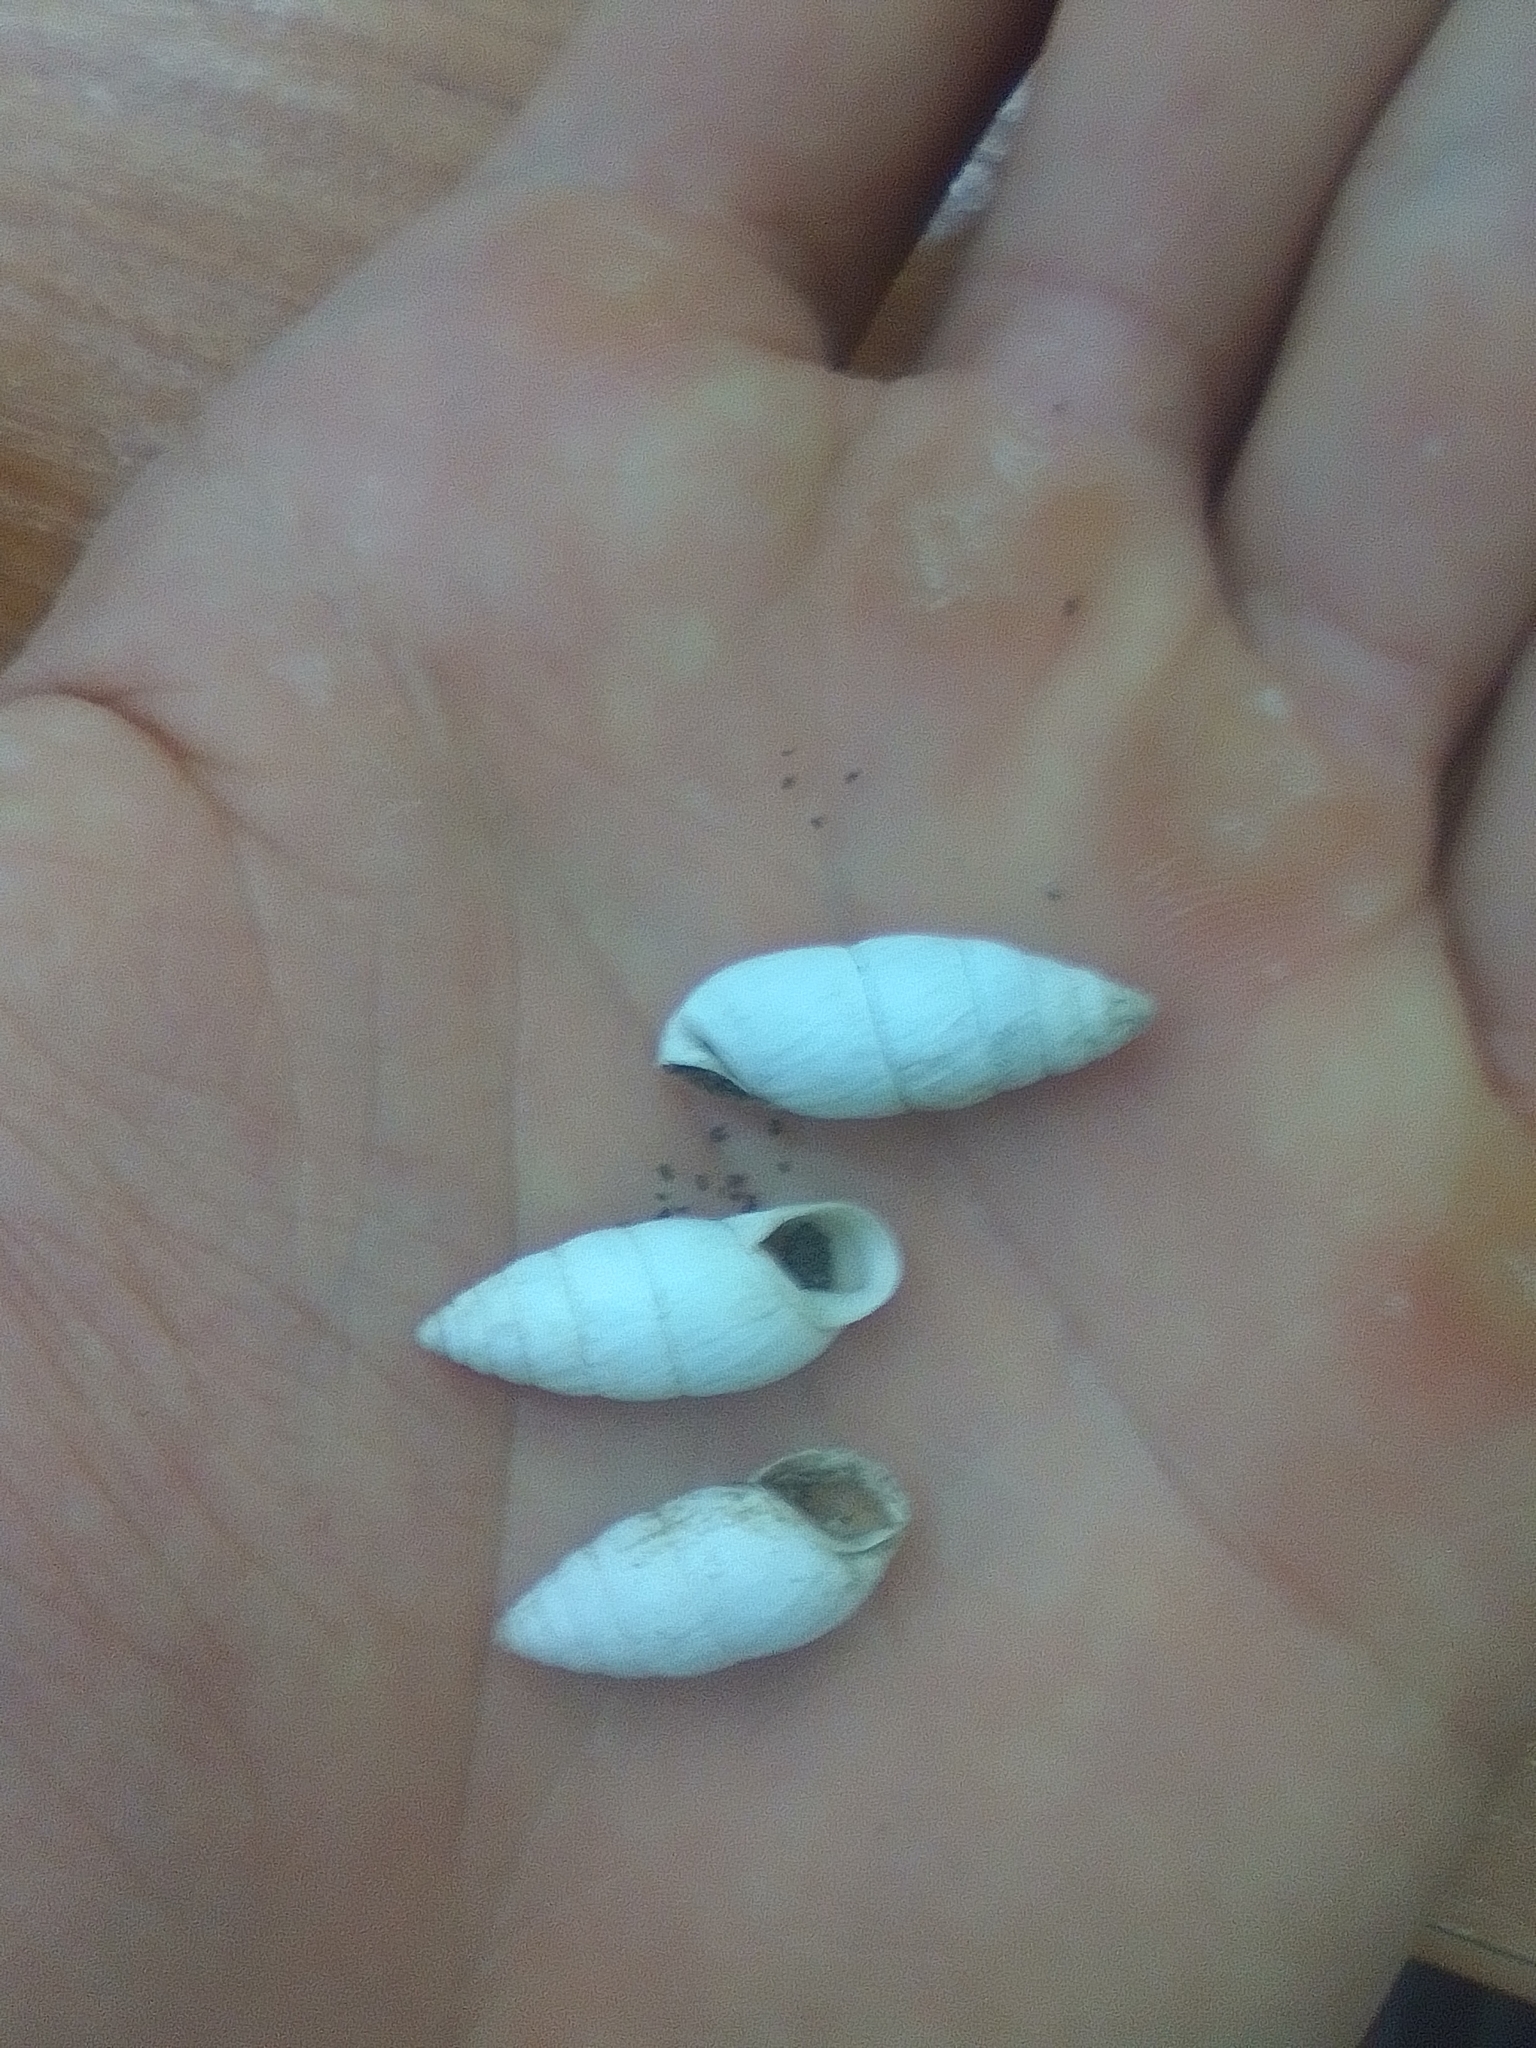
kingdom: Animalia
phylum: Mollusca
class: Gastropoda
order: Stylommatophora
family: Enidae
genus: Brephulopsis
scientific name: Brephulopsis cylindrica
